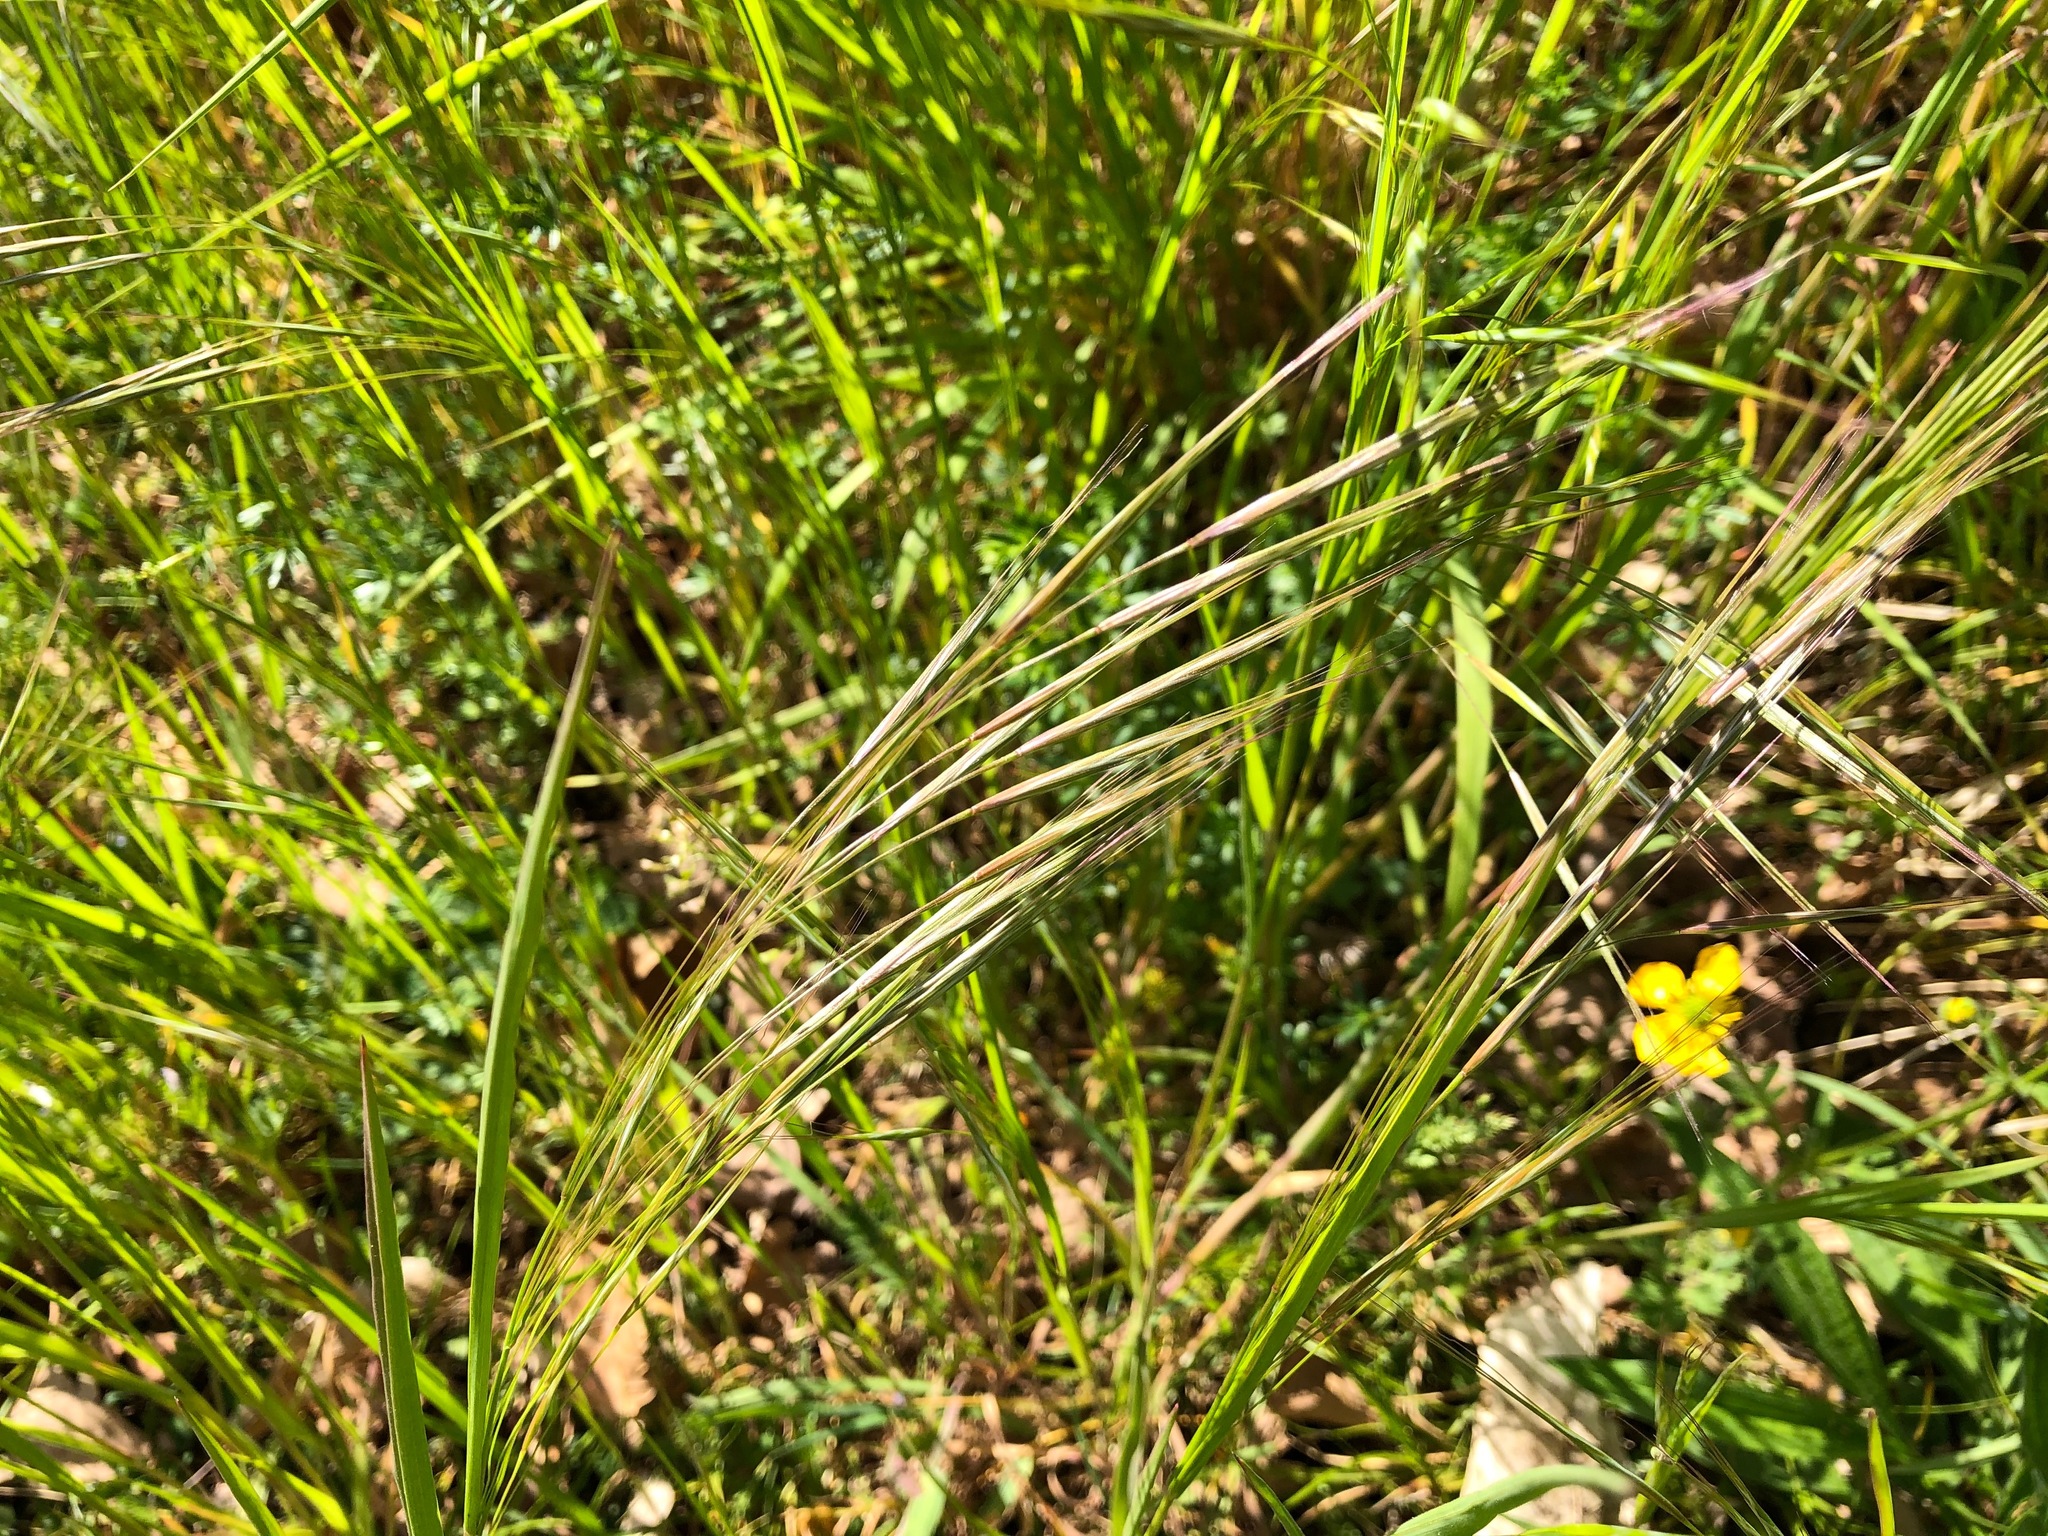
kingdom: Plantae
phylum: Tracheophyta
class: Liliopsida
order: Poales
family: Poaceae
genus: Bromus
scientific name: Bromus sterilis
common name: Poverty brome
